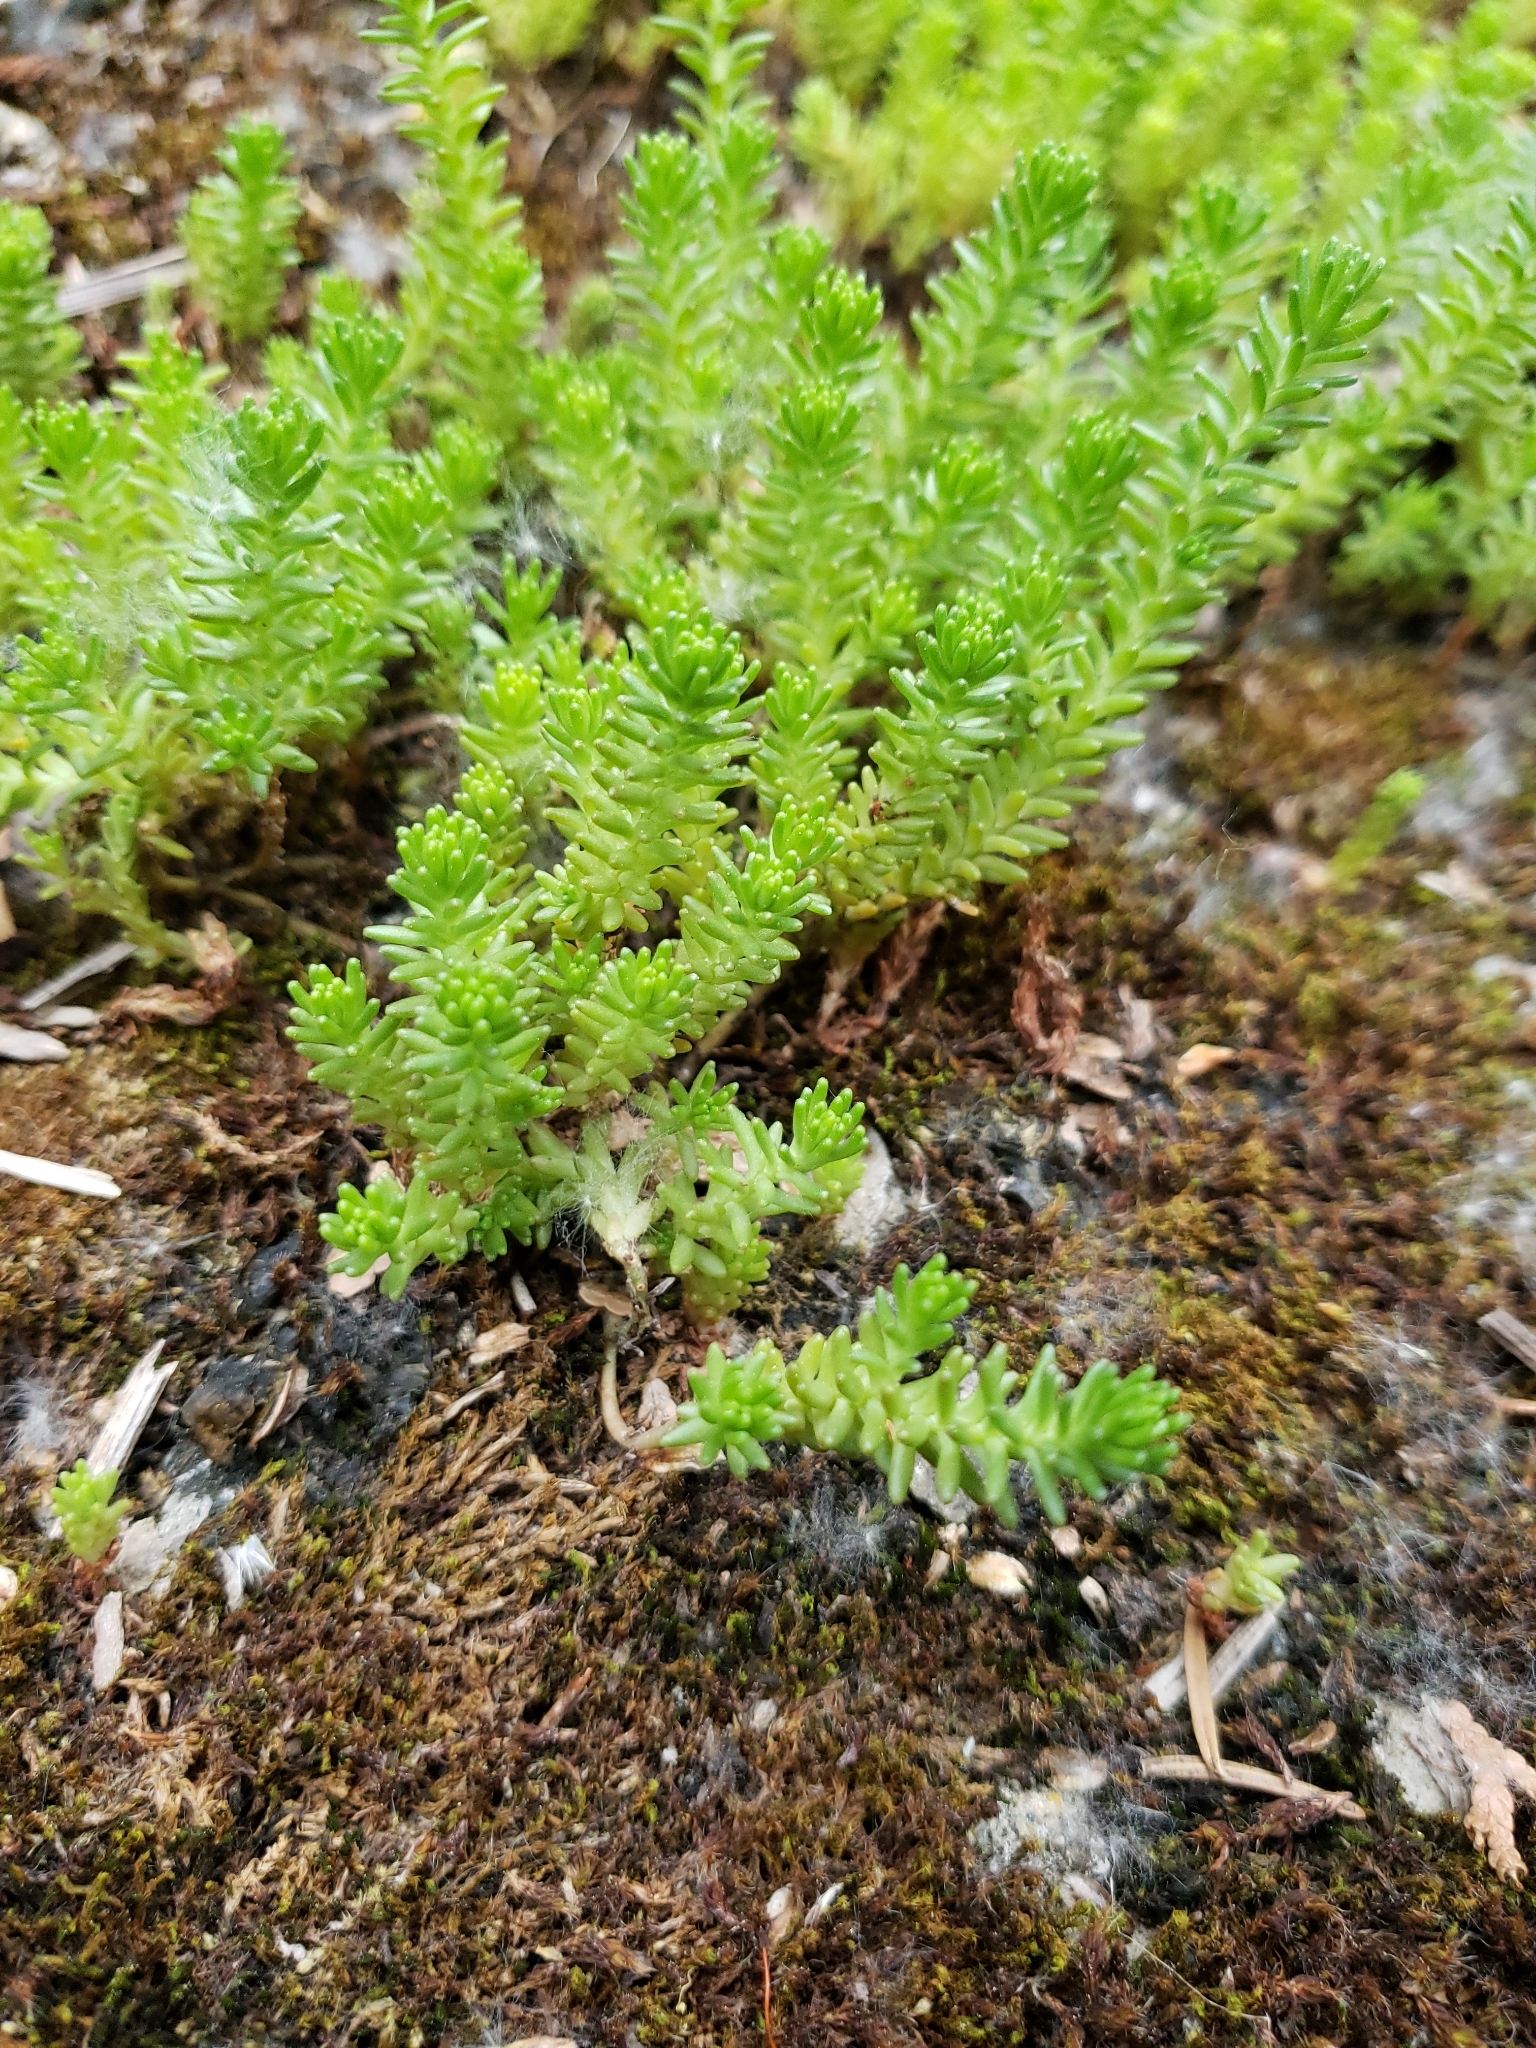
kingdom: Plantae
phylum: Tracheophyta
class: Magnoliopsida
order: Saxifragales
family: Crassulaceae
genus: Sedum
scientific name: Sedum sexangulare
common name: Tasteless stonecrop
